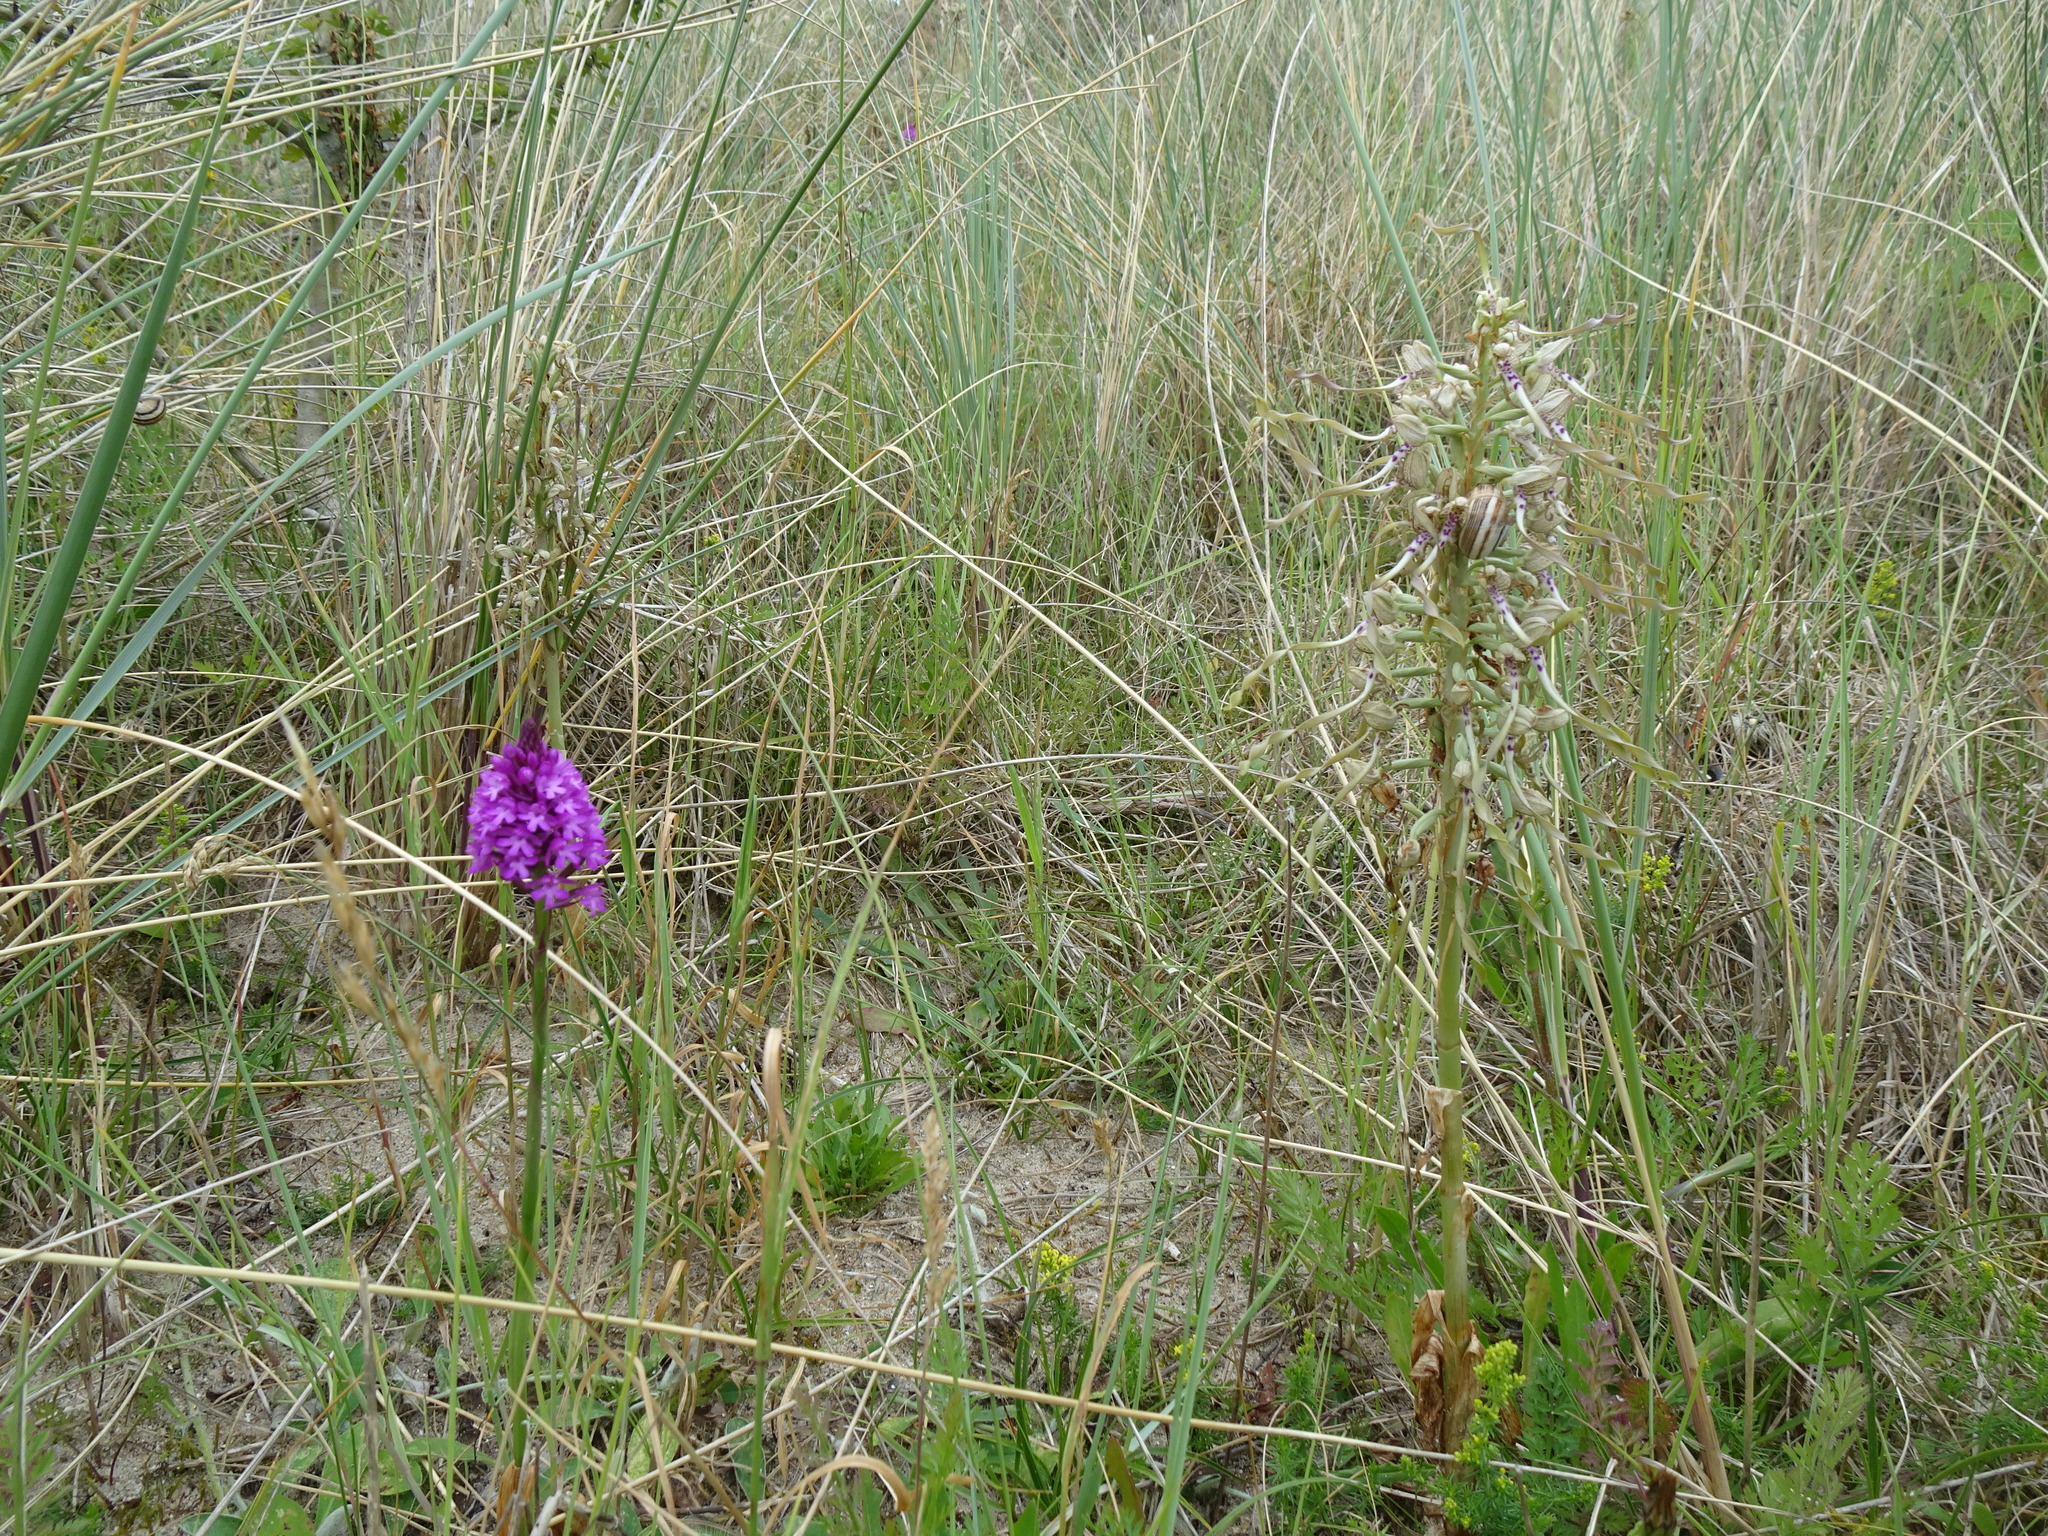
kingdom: Plantae
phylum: Tracheophyta
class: Liliopsida
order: Asparagales
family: Orchidaceae
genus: Himantoglossum
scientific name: Himantoglossum hircinum
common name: Lizard orchid
